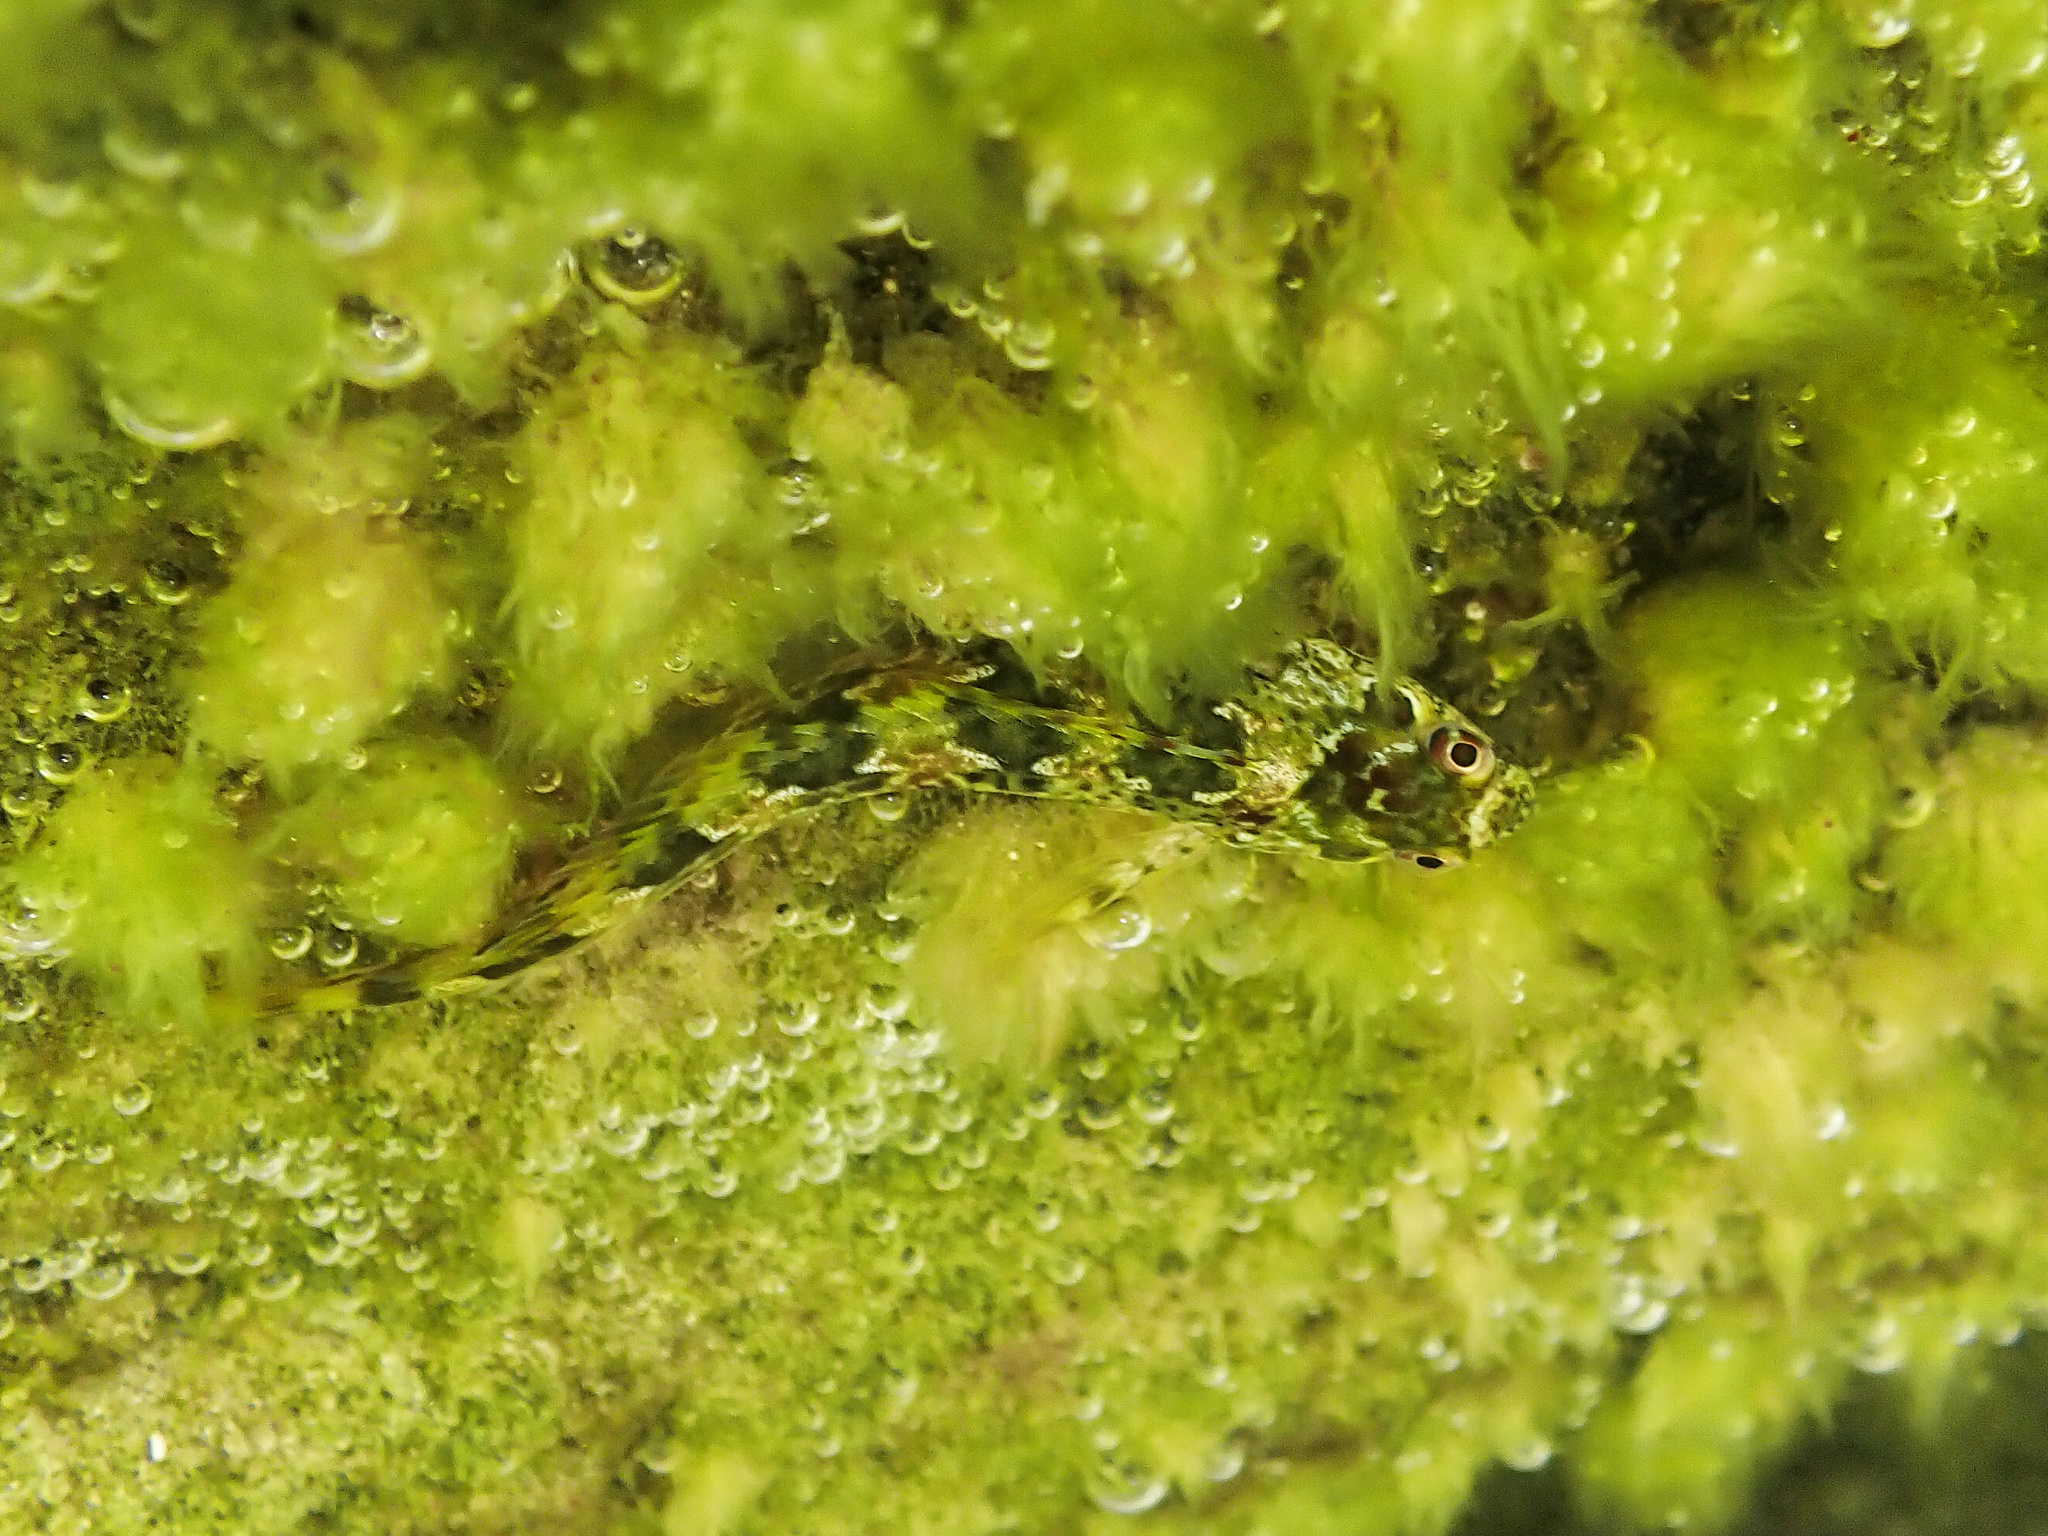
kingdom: Animalia
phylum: Chordata
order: Perciformes
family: Blenniidae
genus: Lipophrys
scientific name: Lipophrys pholis
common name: Shanny
